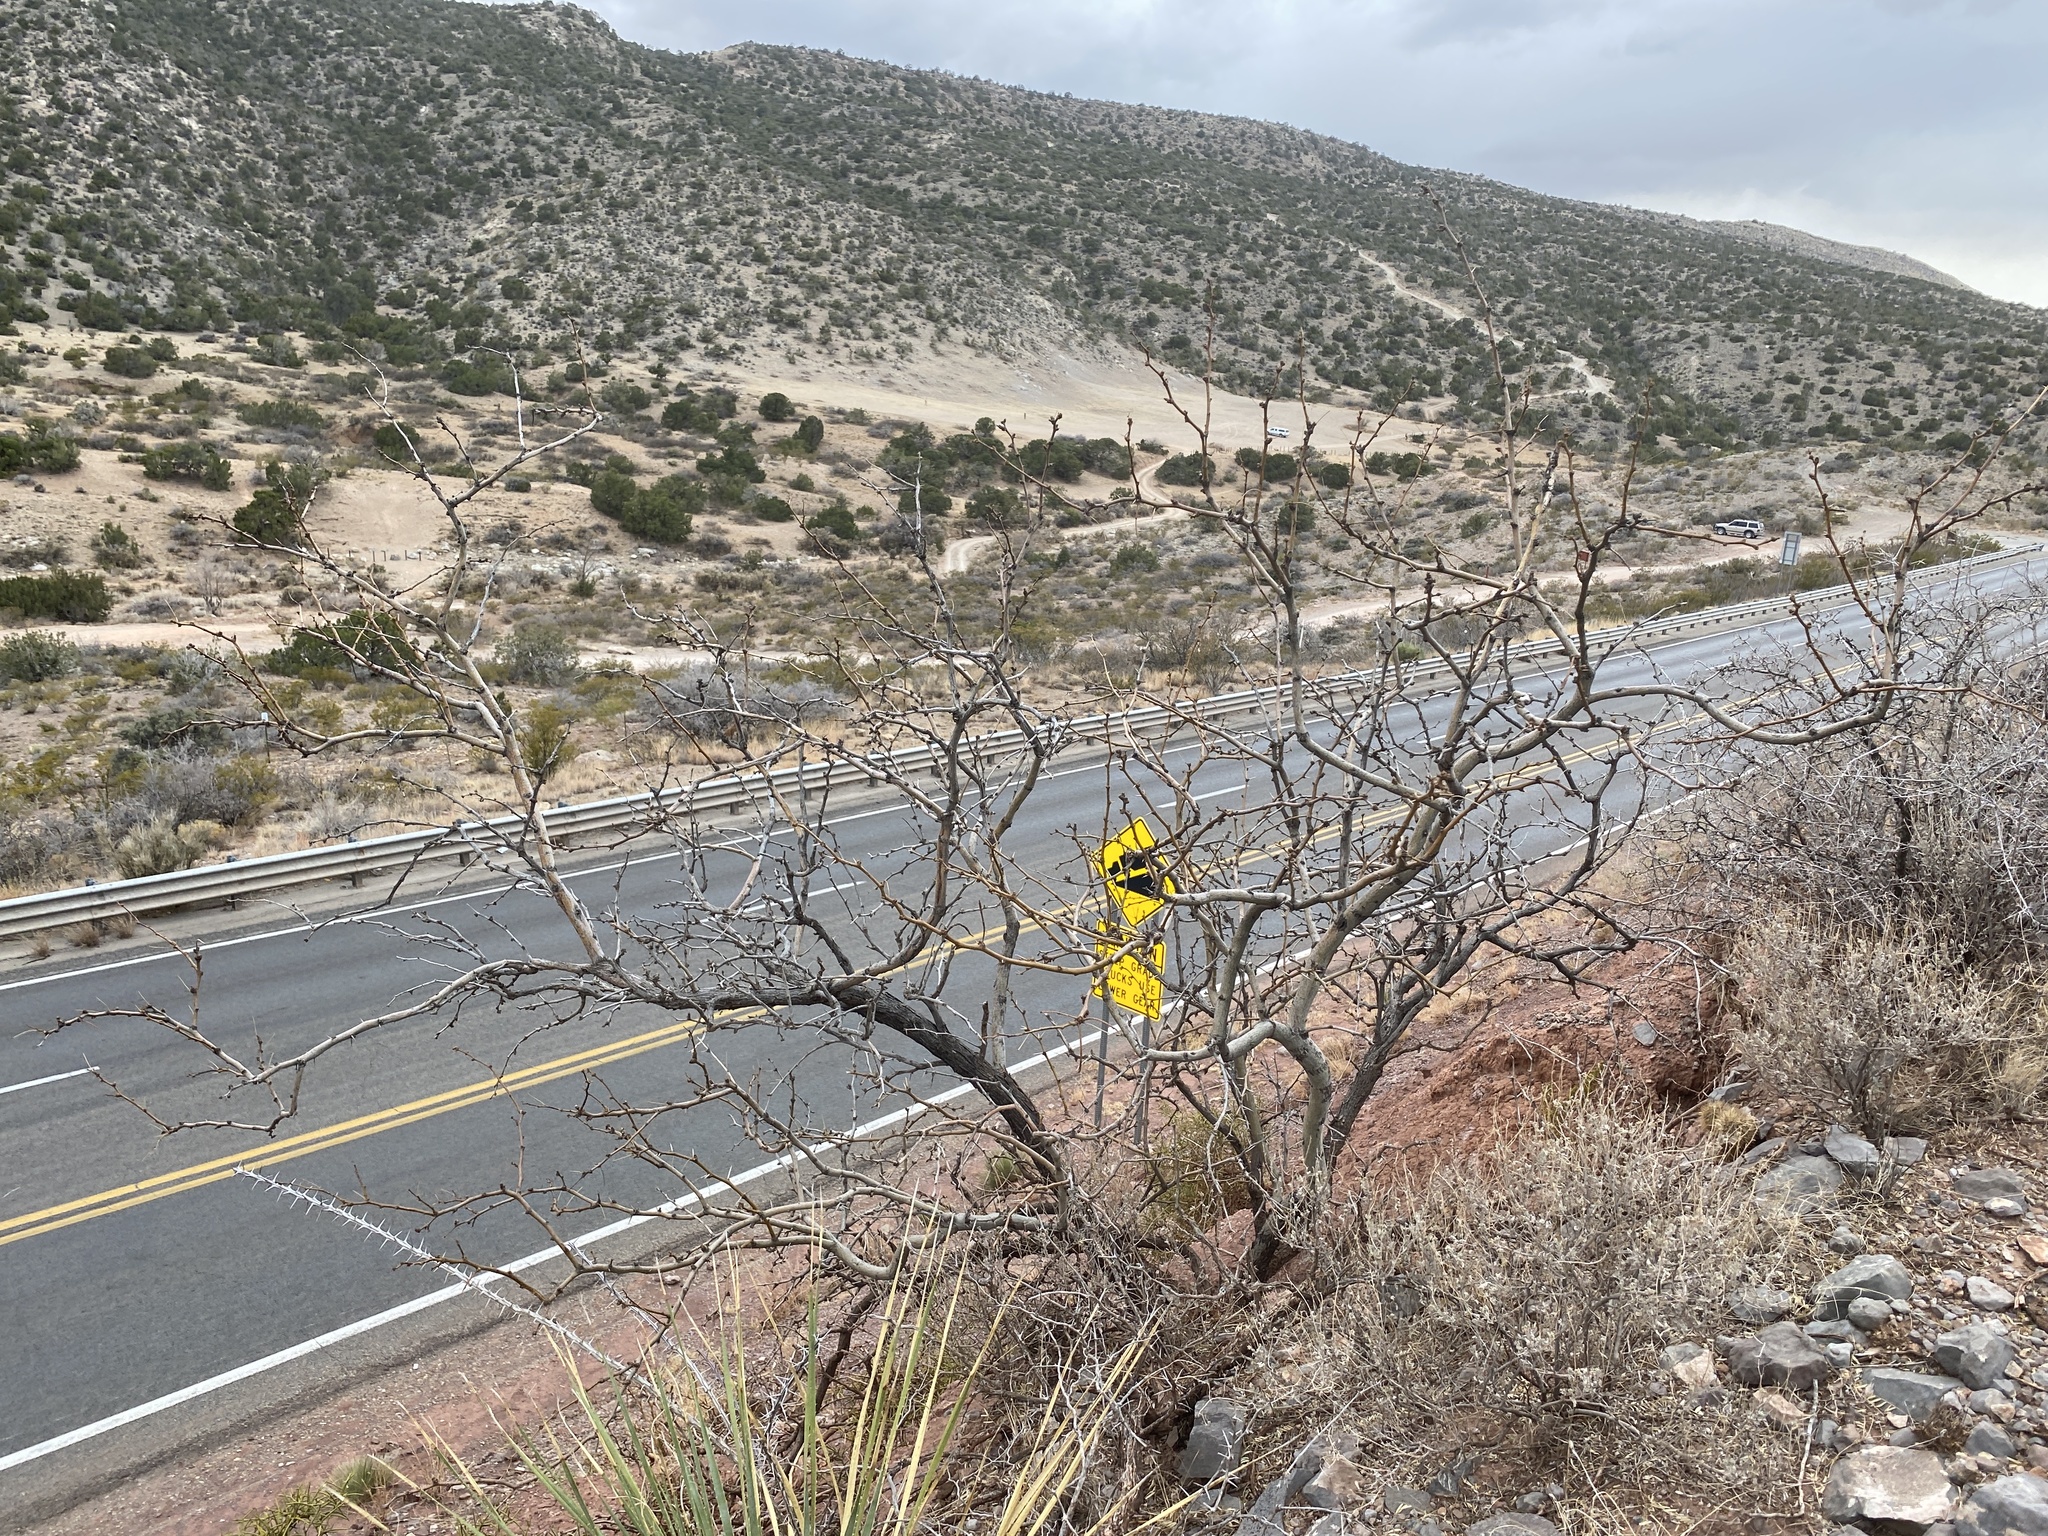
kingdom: Plantae
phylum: Tracheophyta
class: Magnoliopsida
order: Fabales
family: Fabaceae
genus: Prosopis
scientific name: Prosopis glandulosa
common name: Honey mesquite
